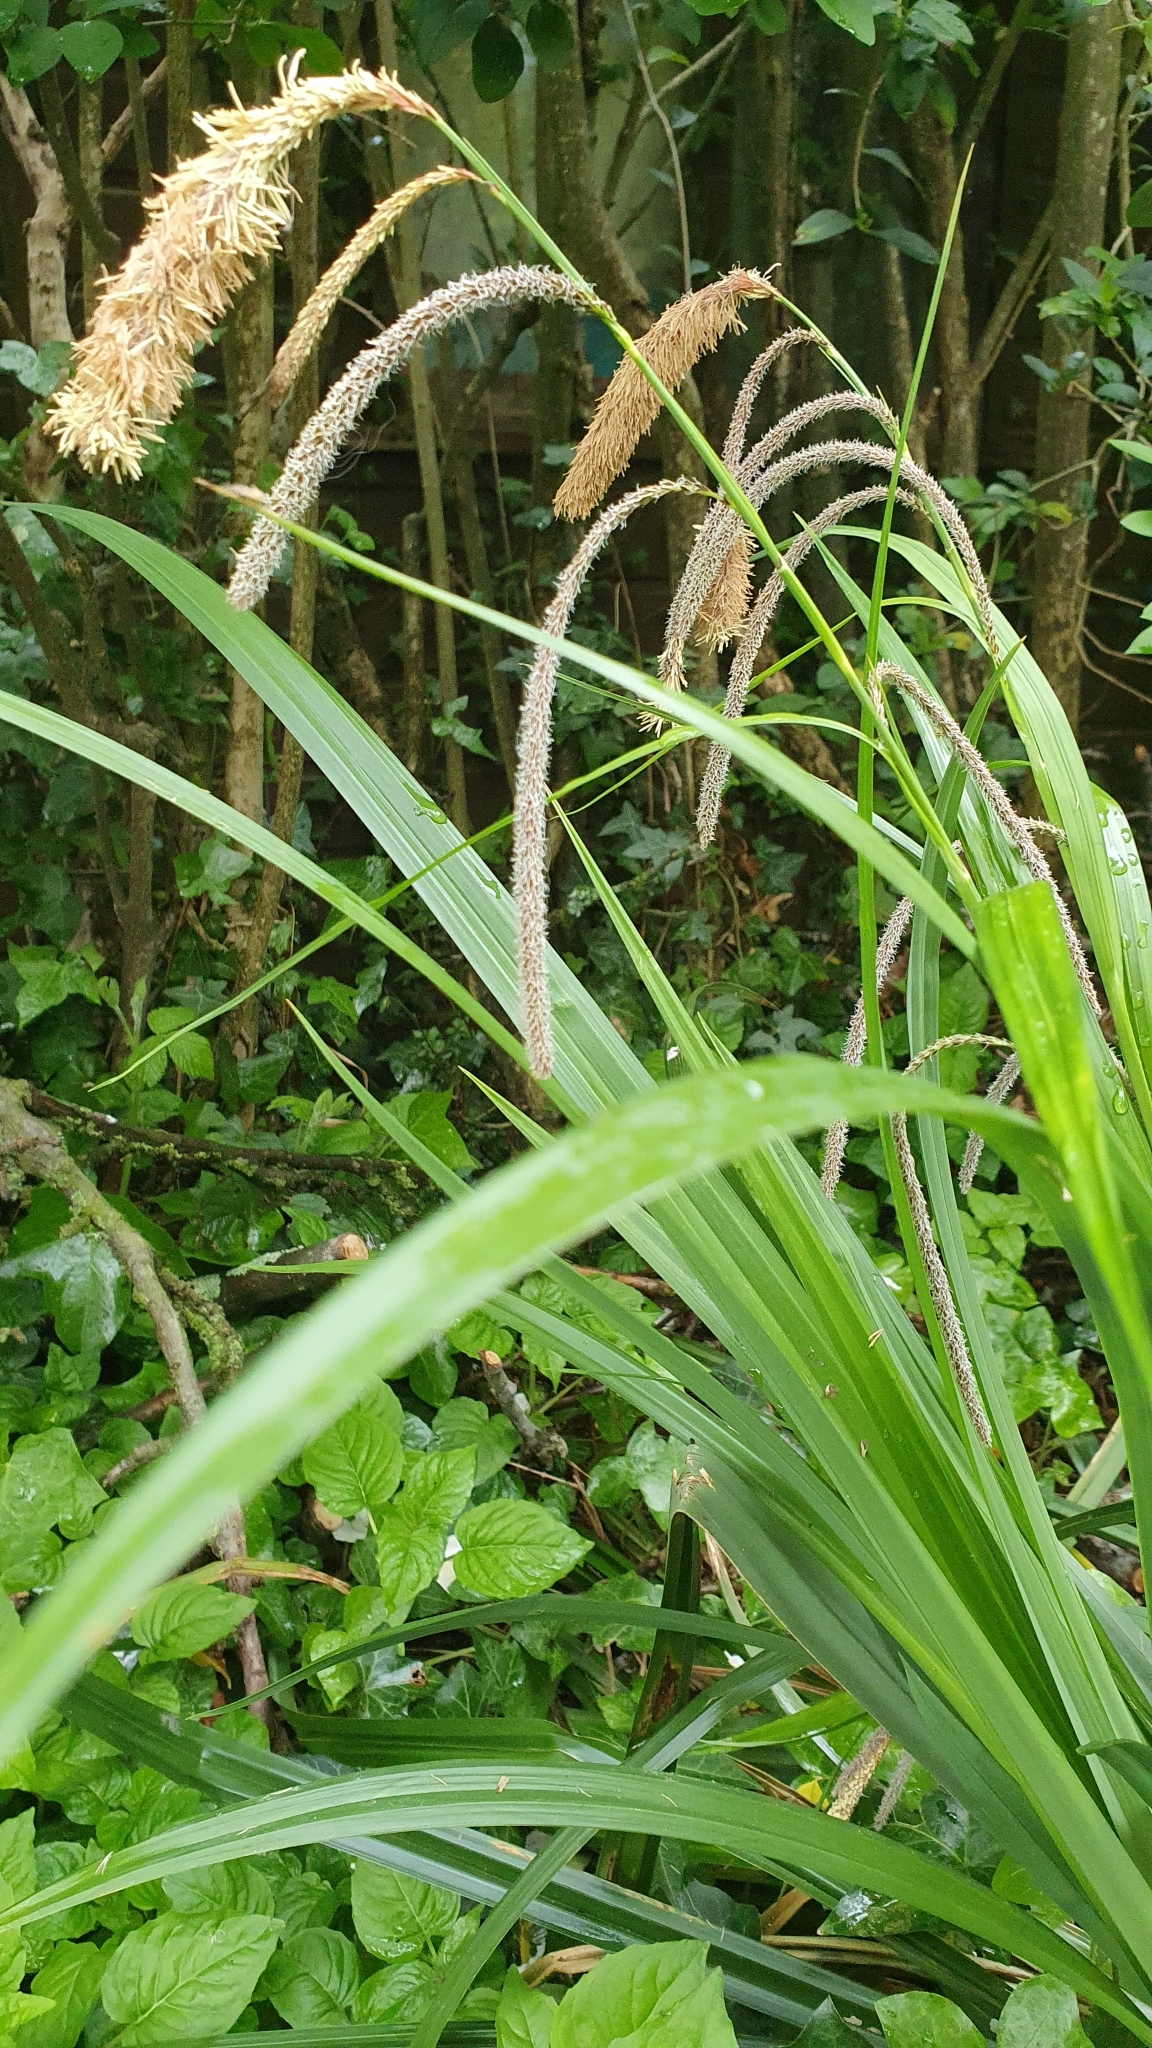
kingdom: Plantae
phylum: Tracheophyta
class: Liliopsida
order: Poales
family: Cyperaceae
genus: Carex
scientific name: Carex pendula
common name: Pendulous sedge
